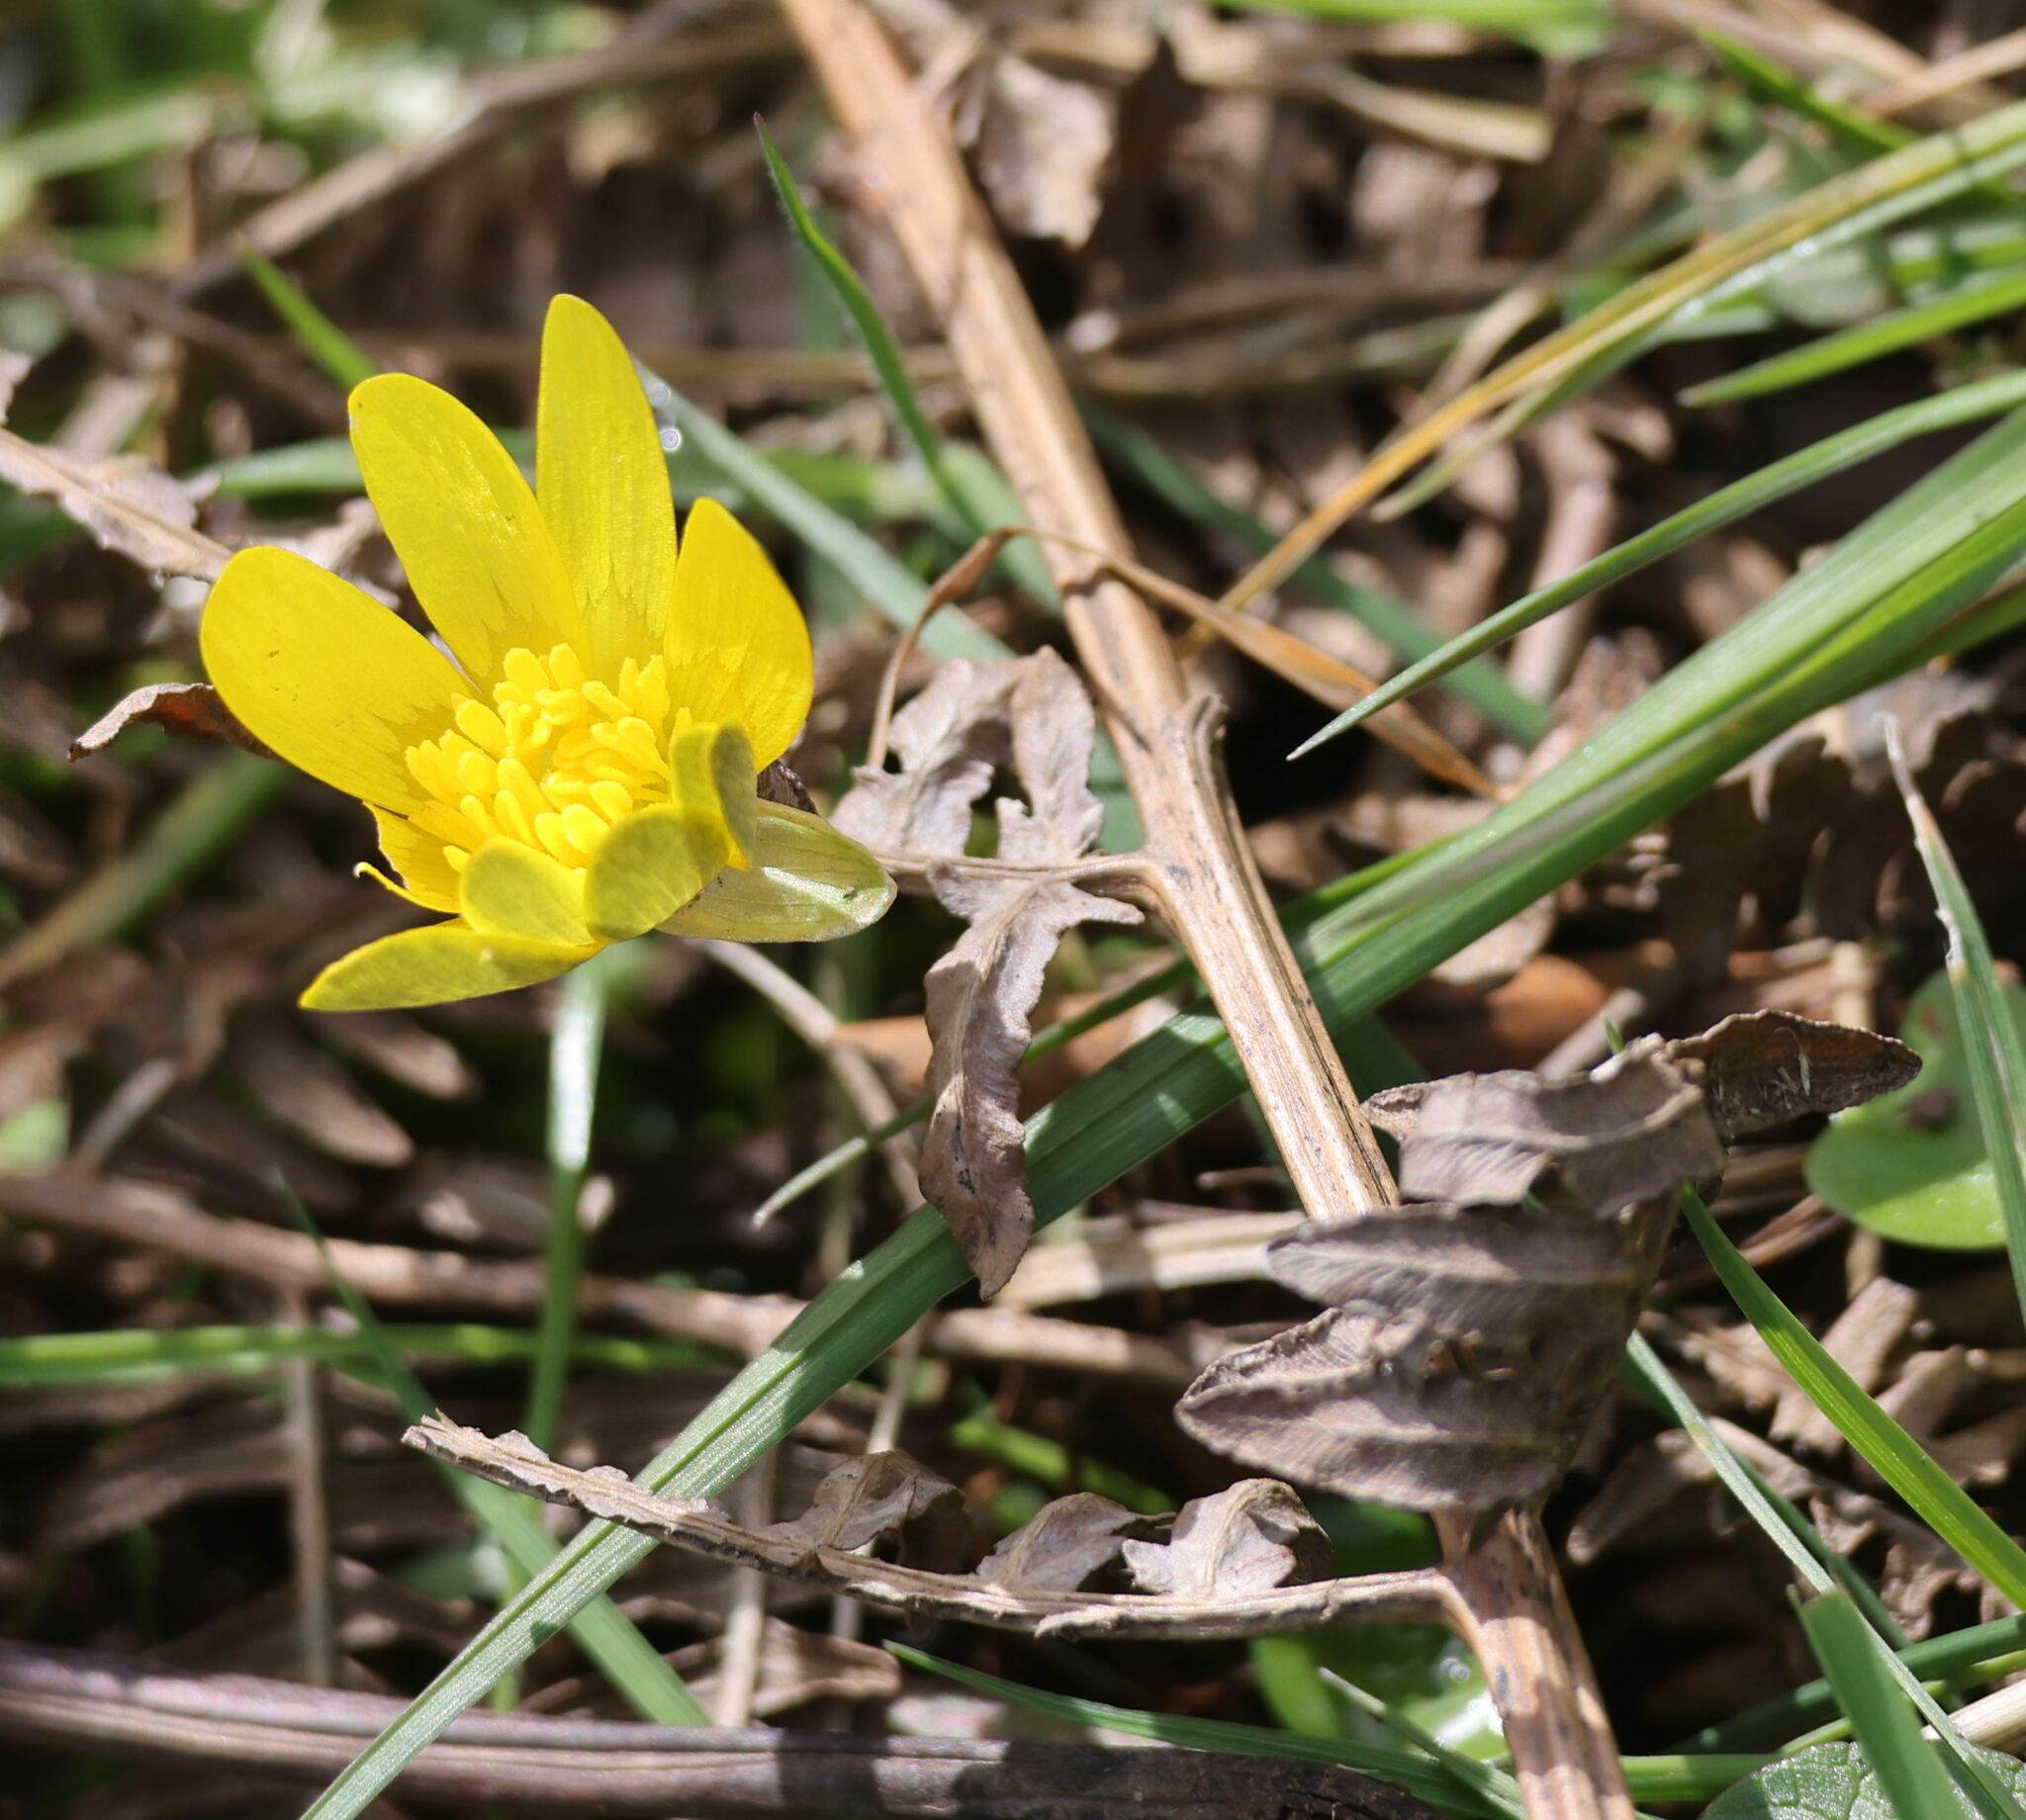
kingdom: Plantae
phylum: Tracheophyta
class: Magnoliopsida
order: Ranunculales
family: Ranunculaceae
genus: Ficaria
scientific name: Ficaria verna
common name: Lesser celandine
